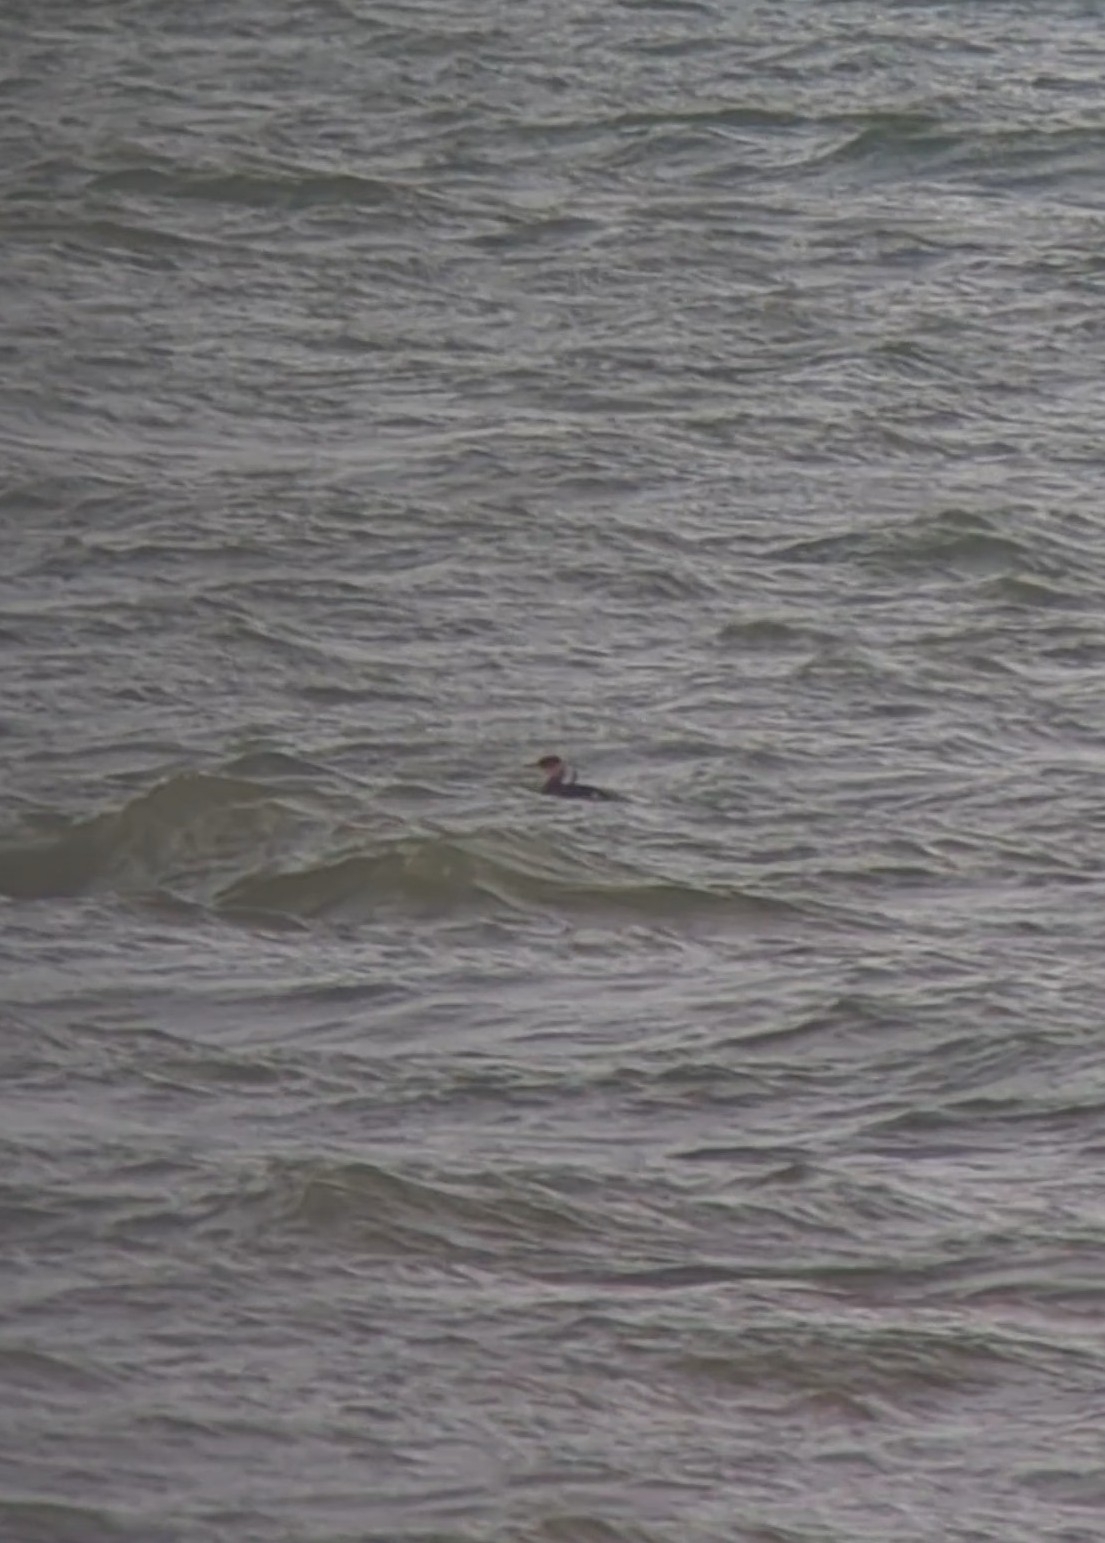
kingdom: Animalia
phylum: Chordata
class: Aves
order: Podicipediformes
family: Podicipedidae
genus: Podiceps
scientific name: Podiceps grisegena
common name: Red-necked grebe
